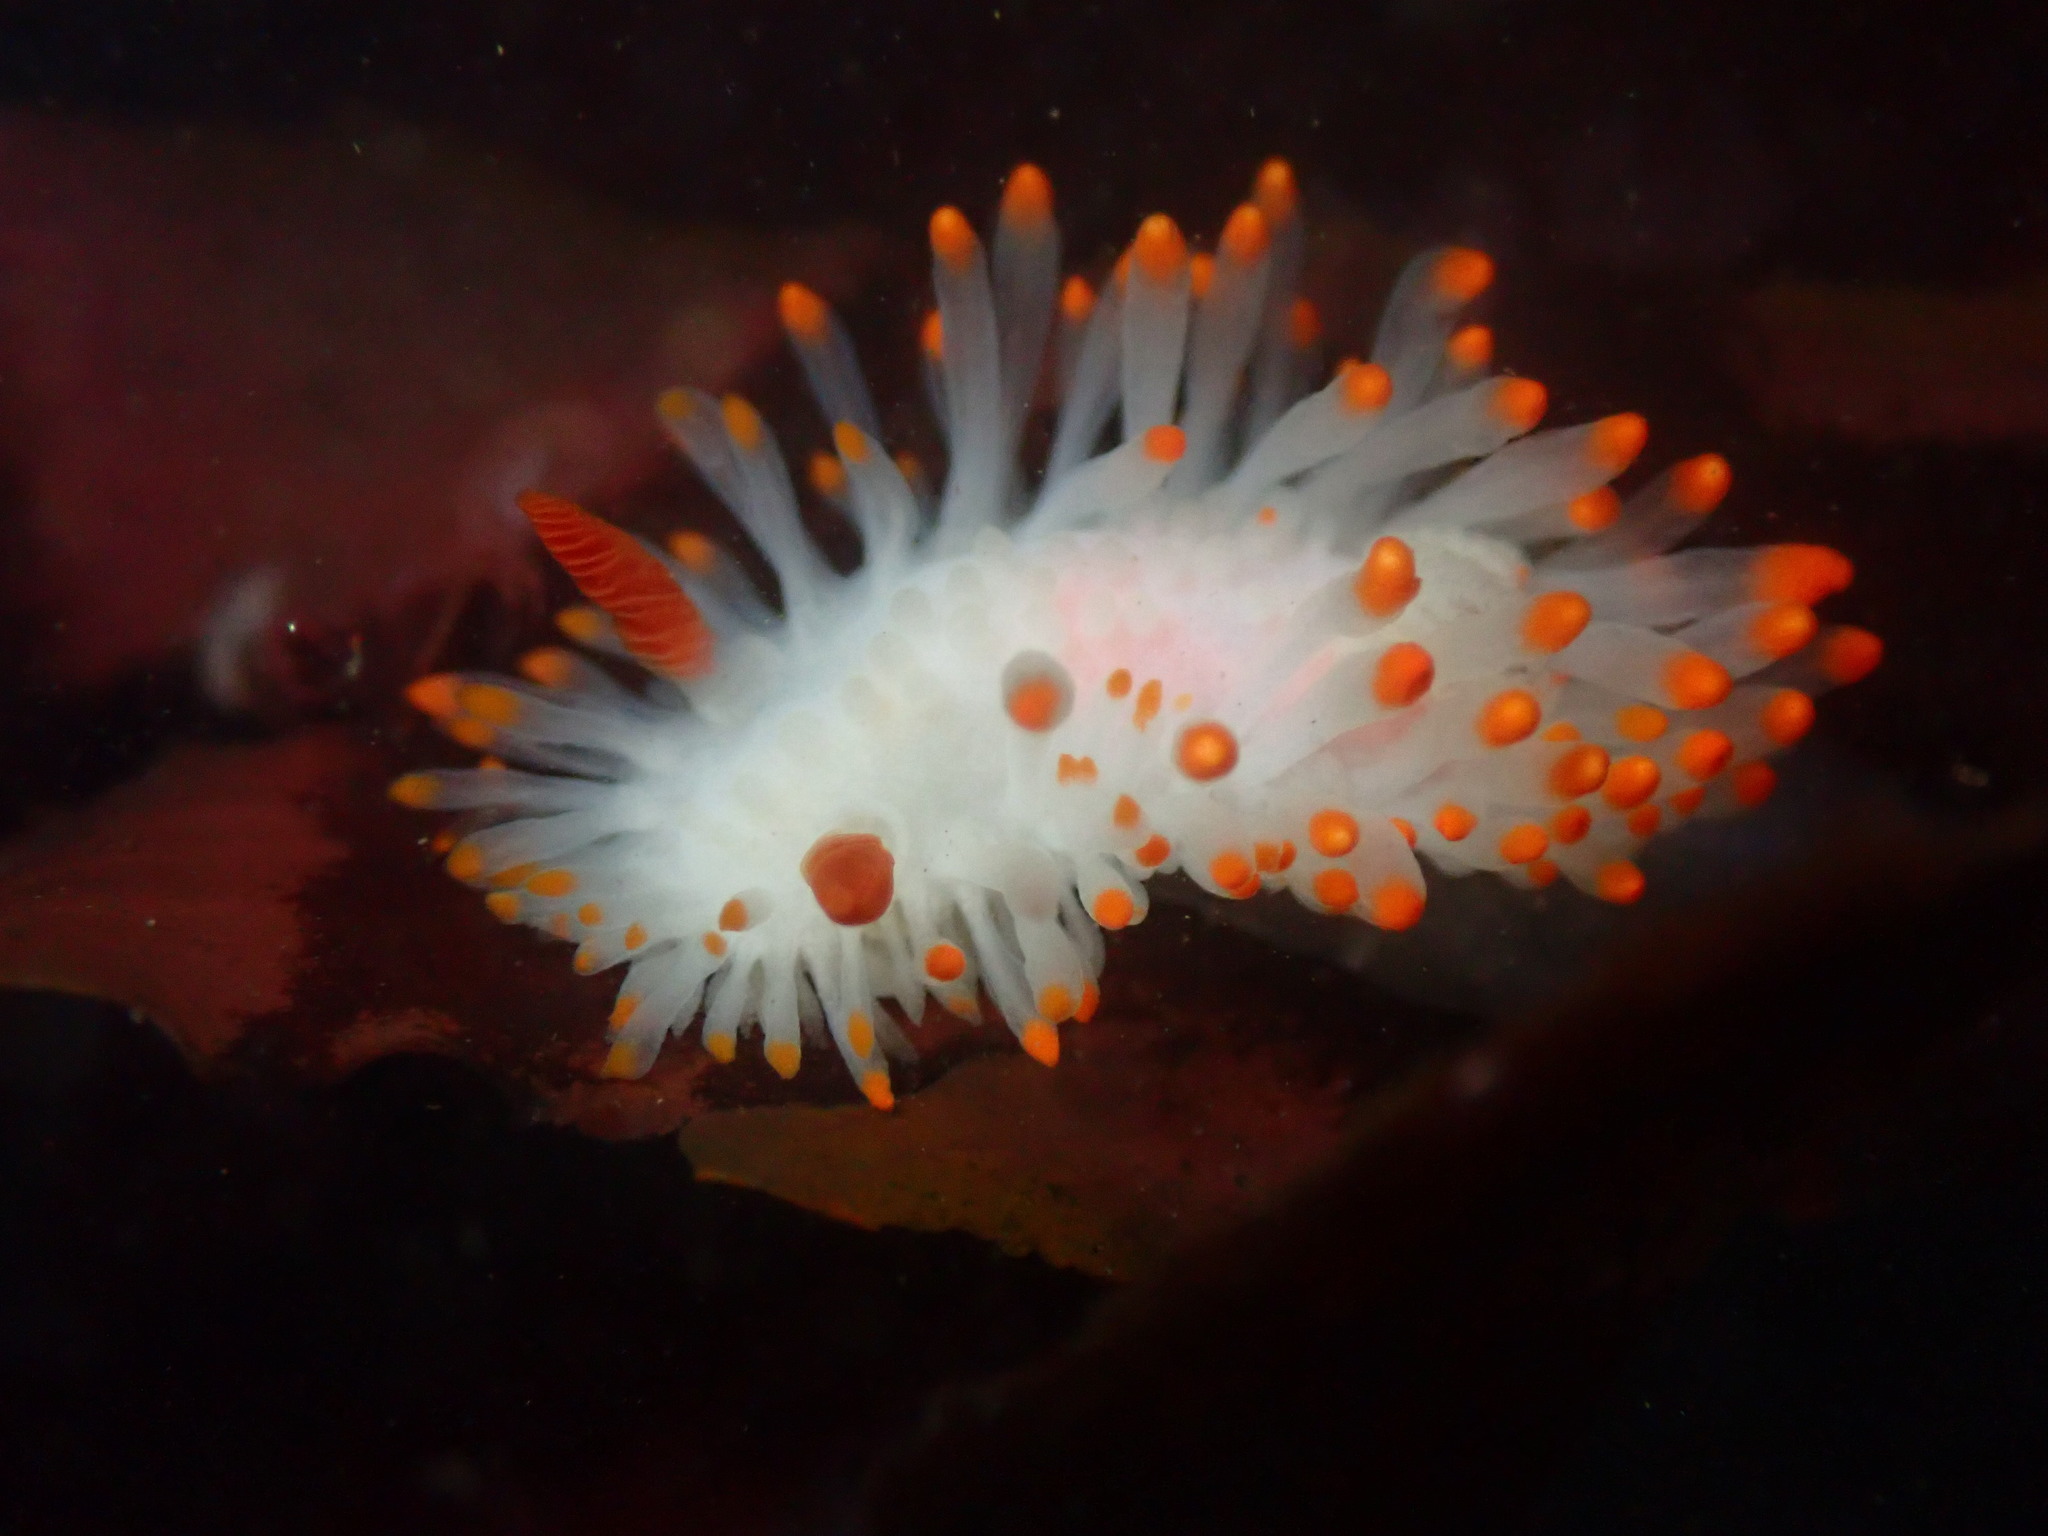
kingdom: Animalia
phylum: Mollusca
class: Gastropoda
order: Nudibranchia
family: Polyceridae
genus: Limacia
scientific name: Limacia cockerelli
